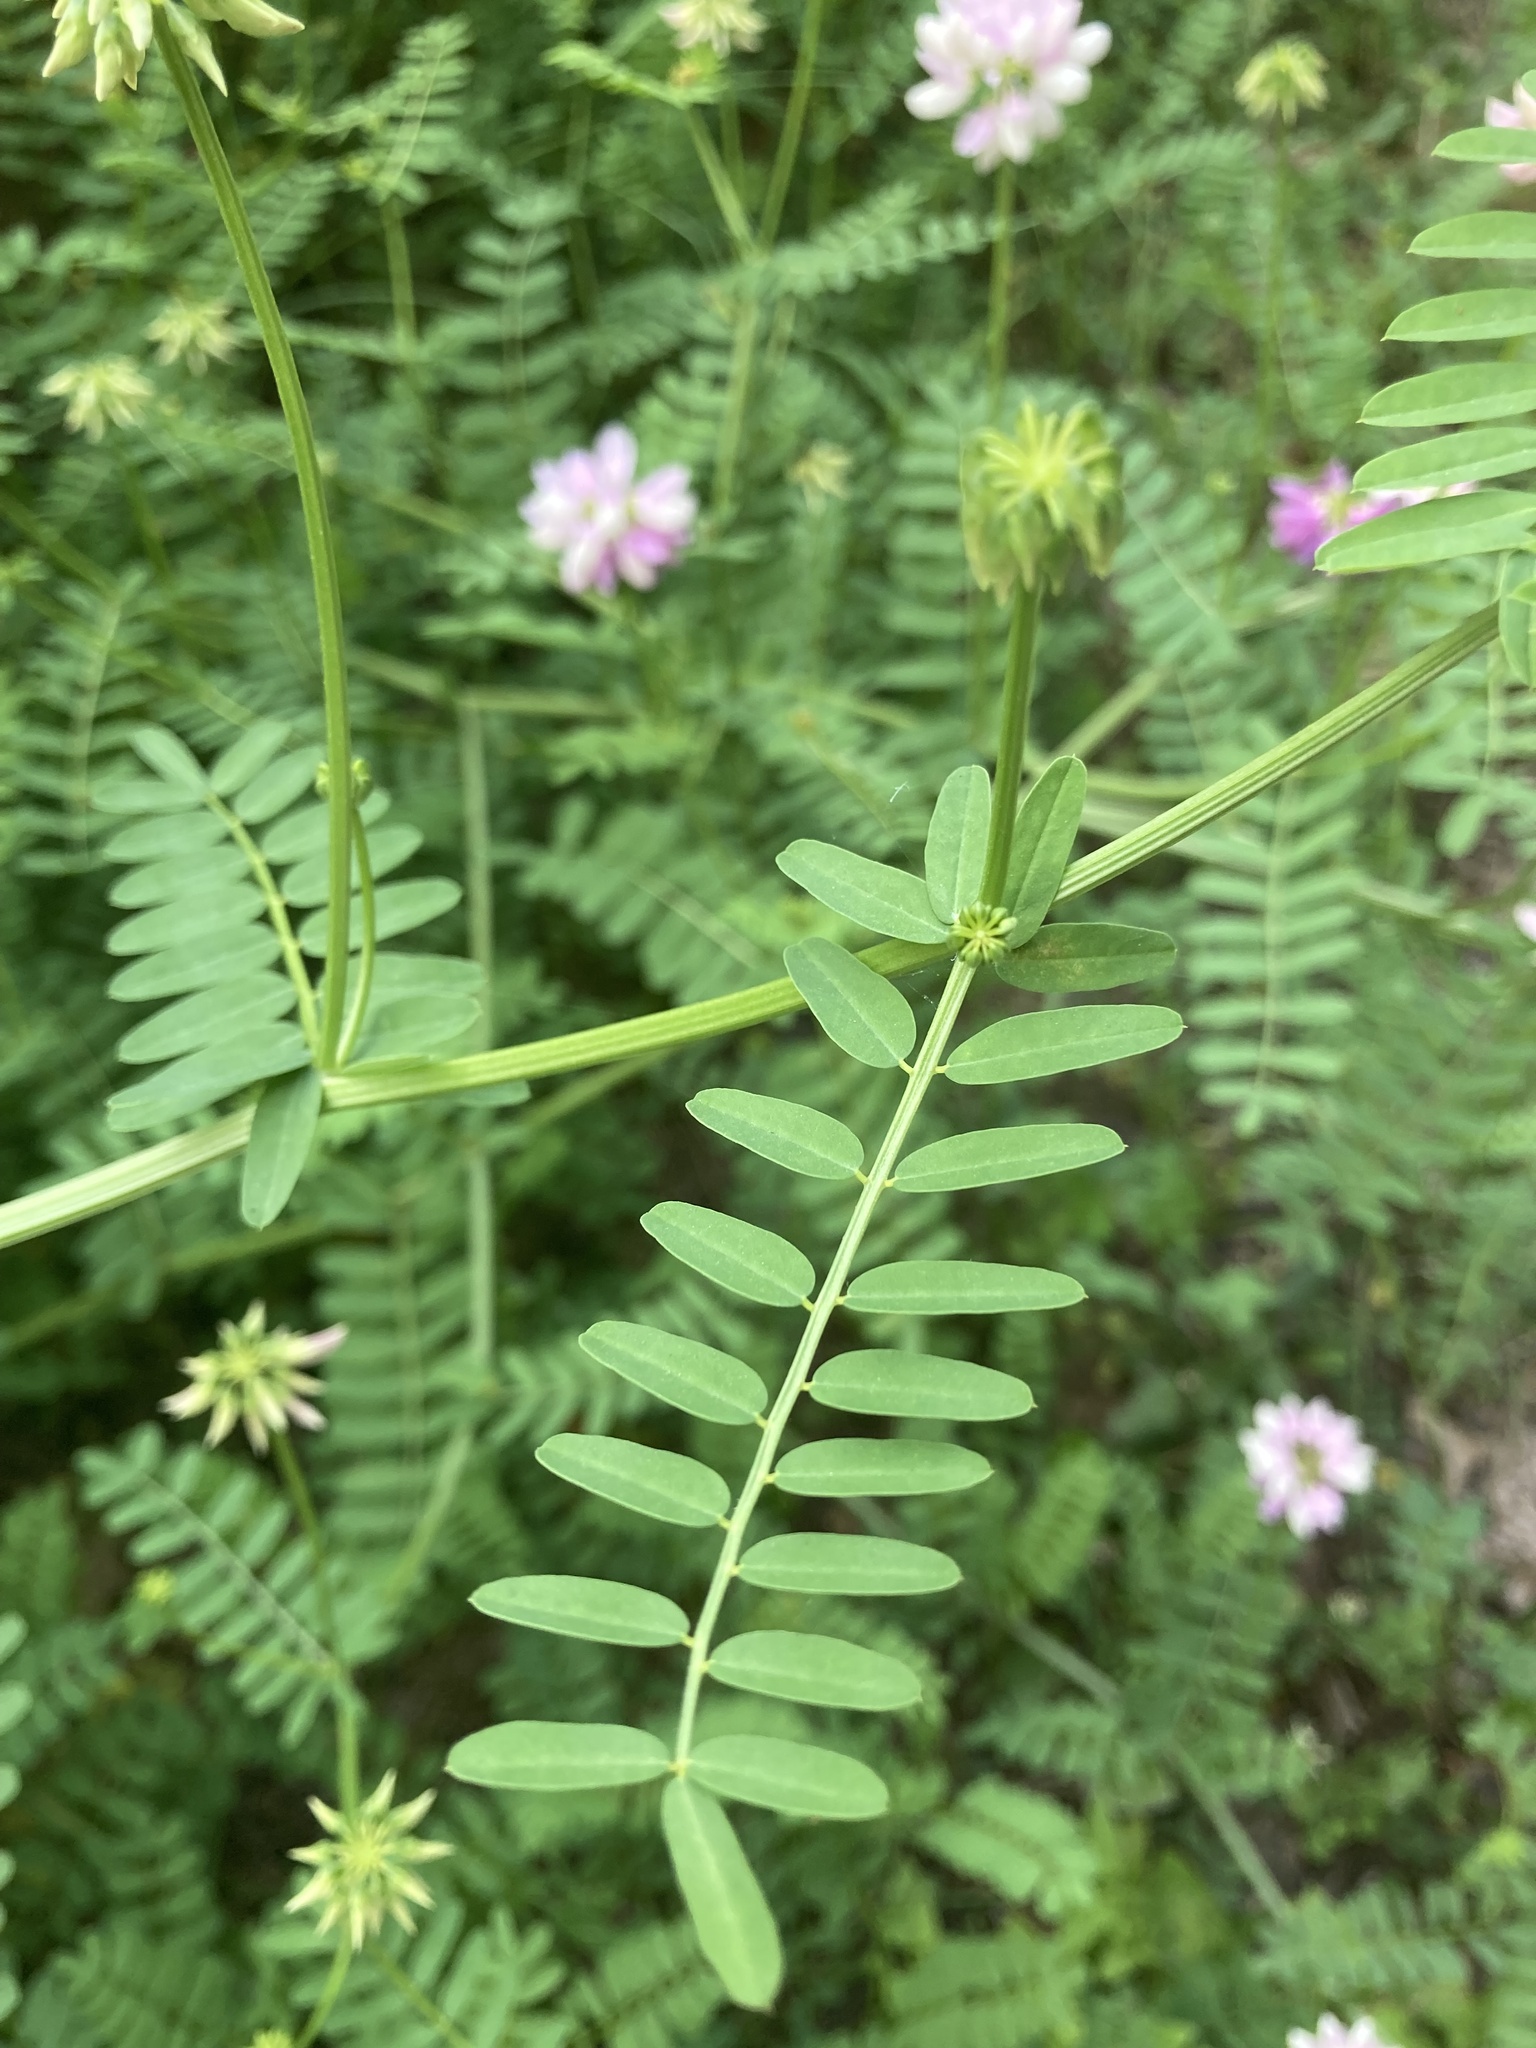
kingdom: Plantae
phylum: Tracheophyta
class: Magnoliopsida
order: Fabales
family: Fabaceae
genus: Coronilla
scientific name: Coronilla varia
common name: Crownvetch
